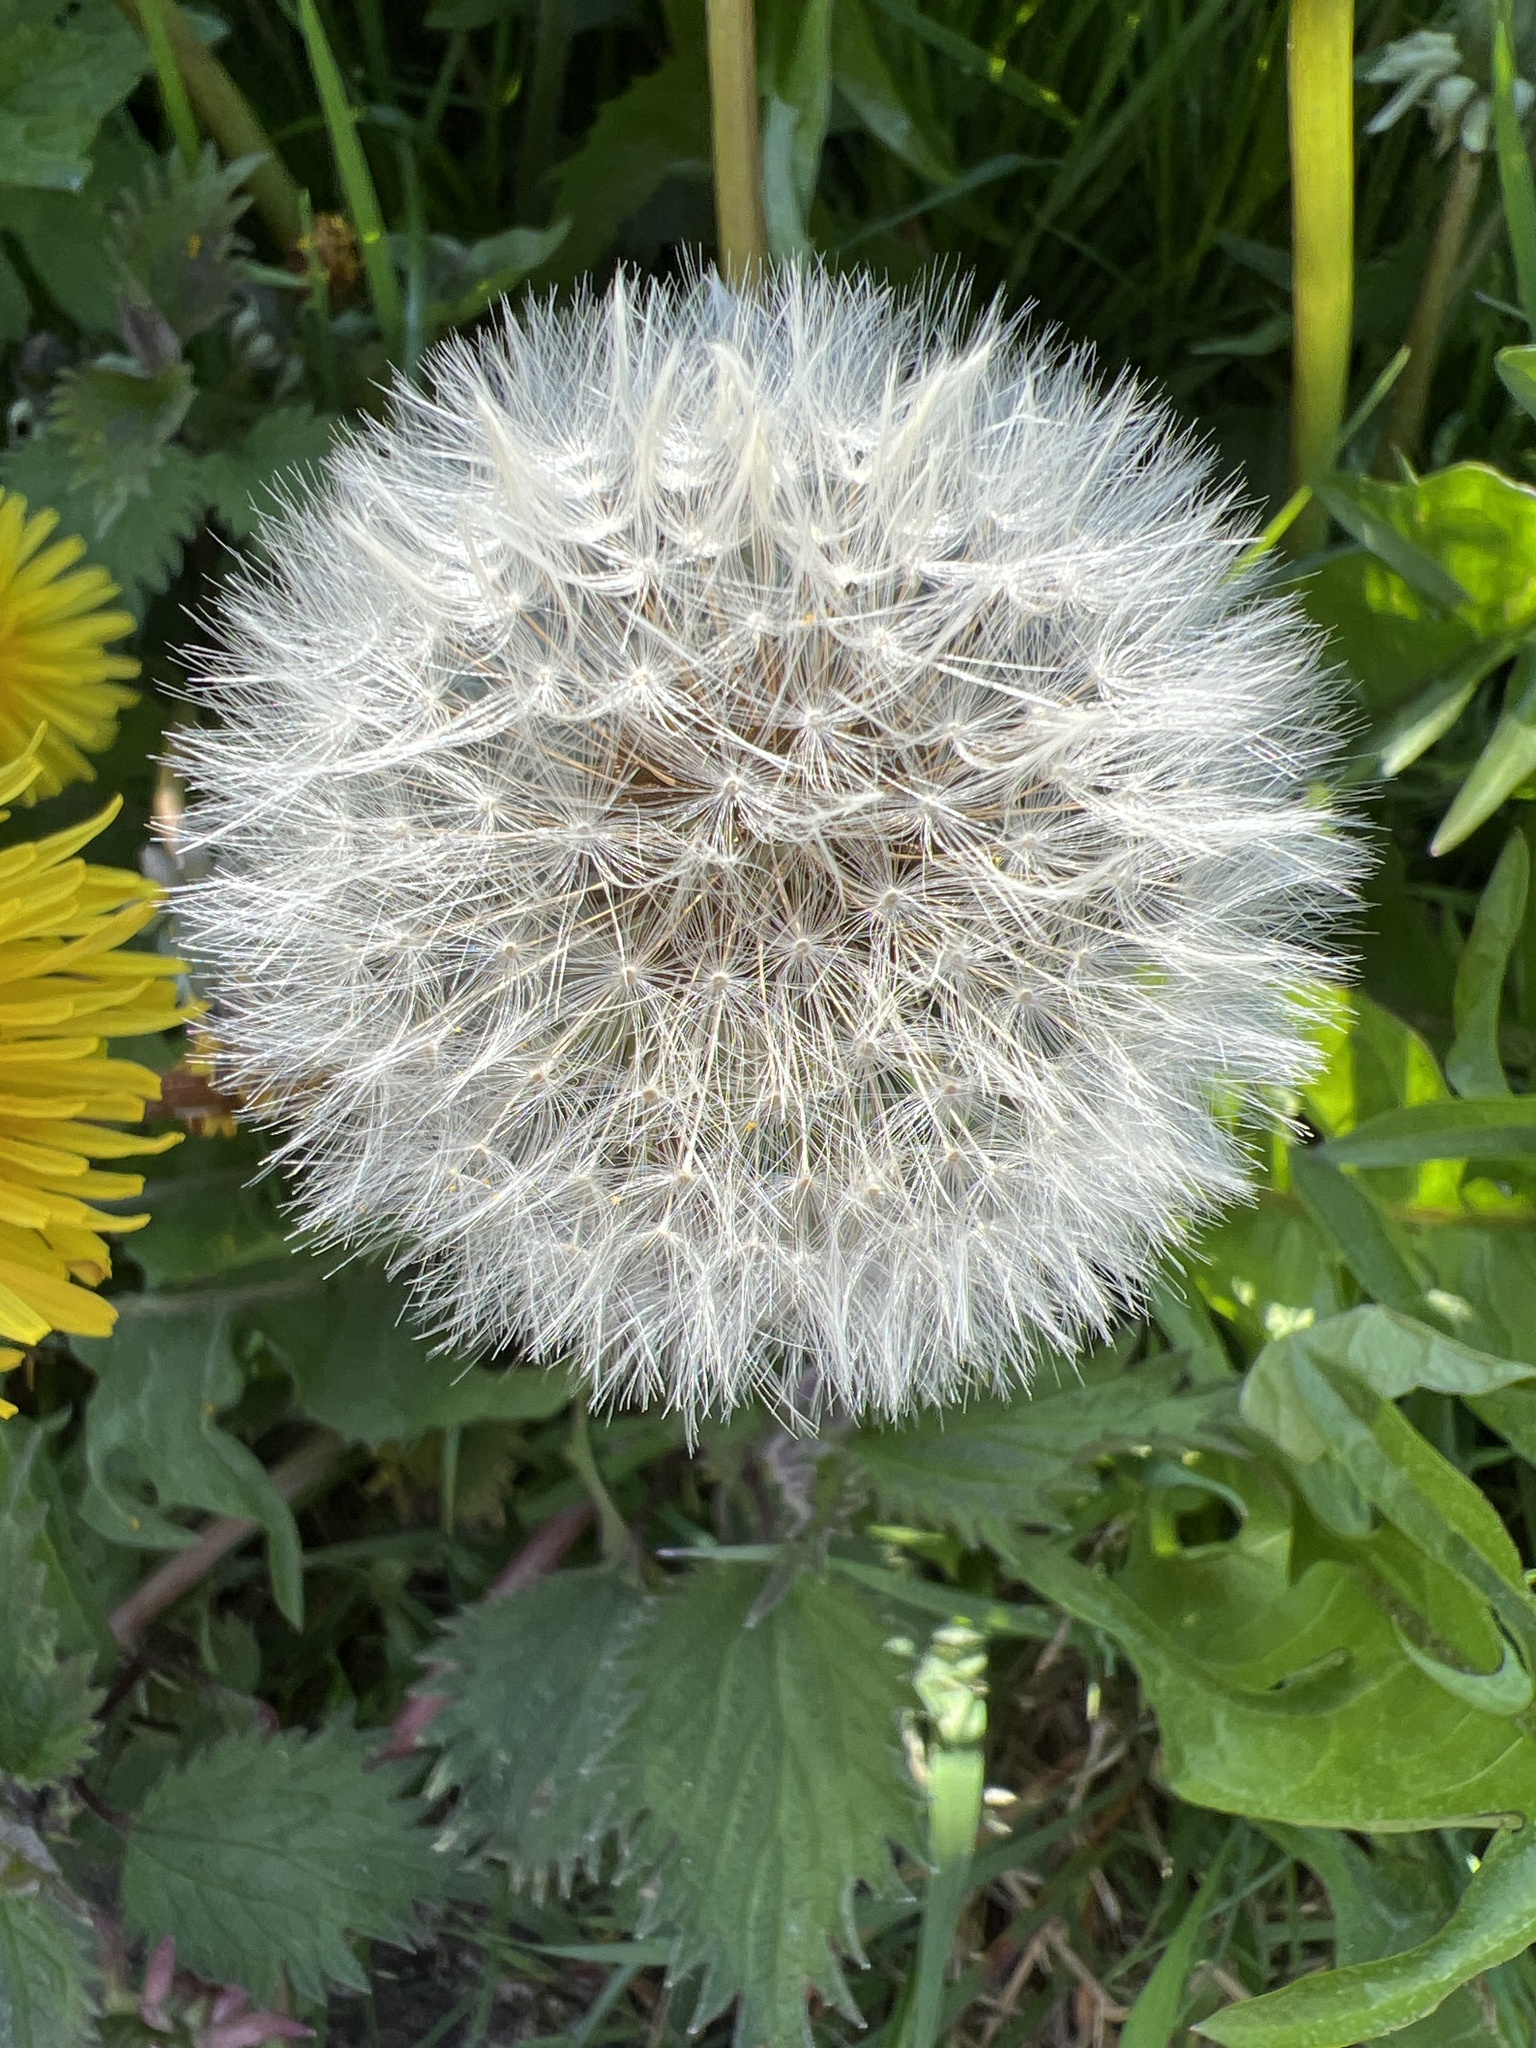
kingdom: Plantae
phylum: Tracheophyta
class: Magnoliopsida
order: Asterales
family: Asteraceae
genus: Taraxacum
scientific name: Taraxacum officinale
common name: Common dandelion
